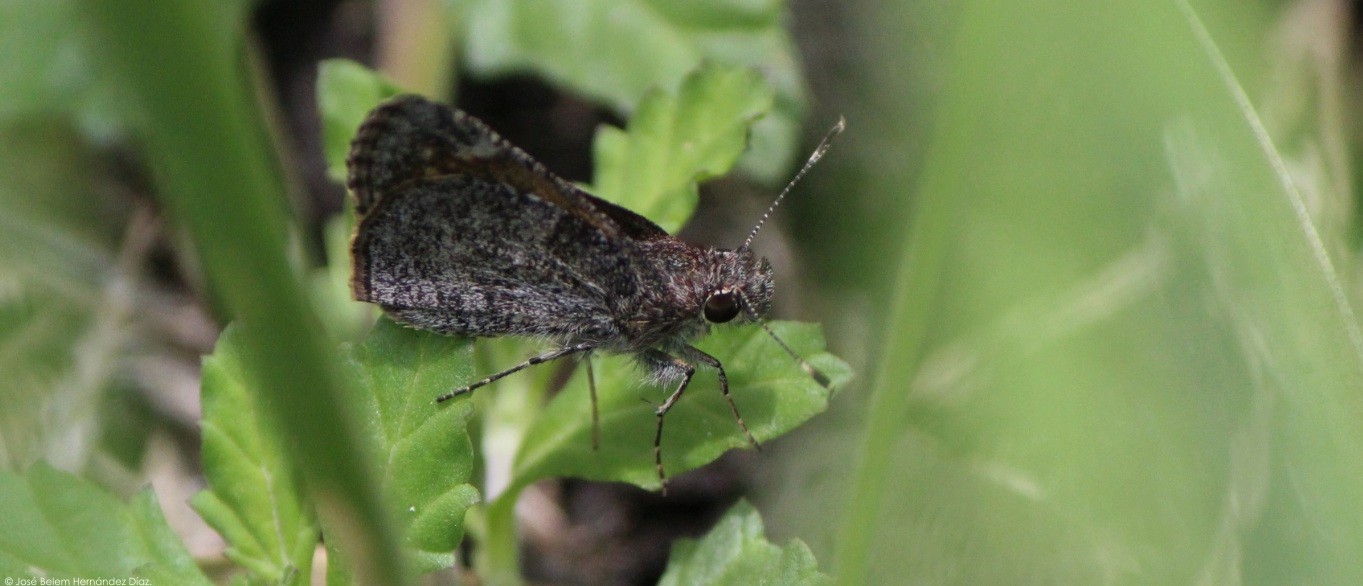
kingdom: Animalia
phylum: Arthropoda
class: Insecta
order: Lepidoptera
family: Hesperiidae
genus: Mastor
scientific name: Mastor fluonia
